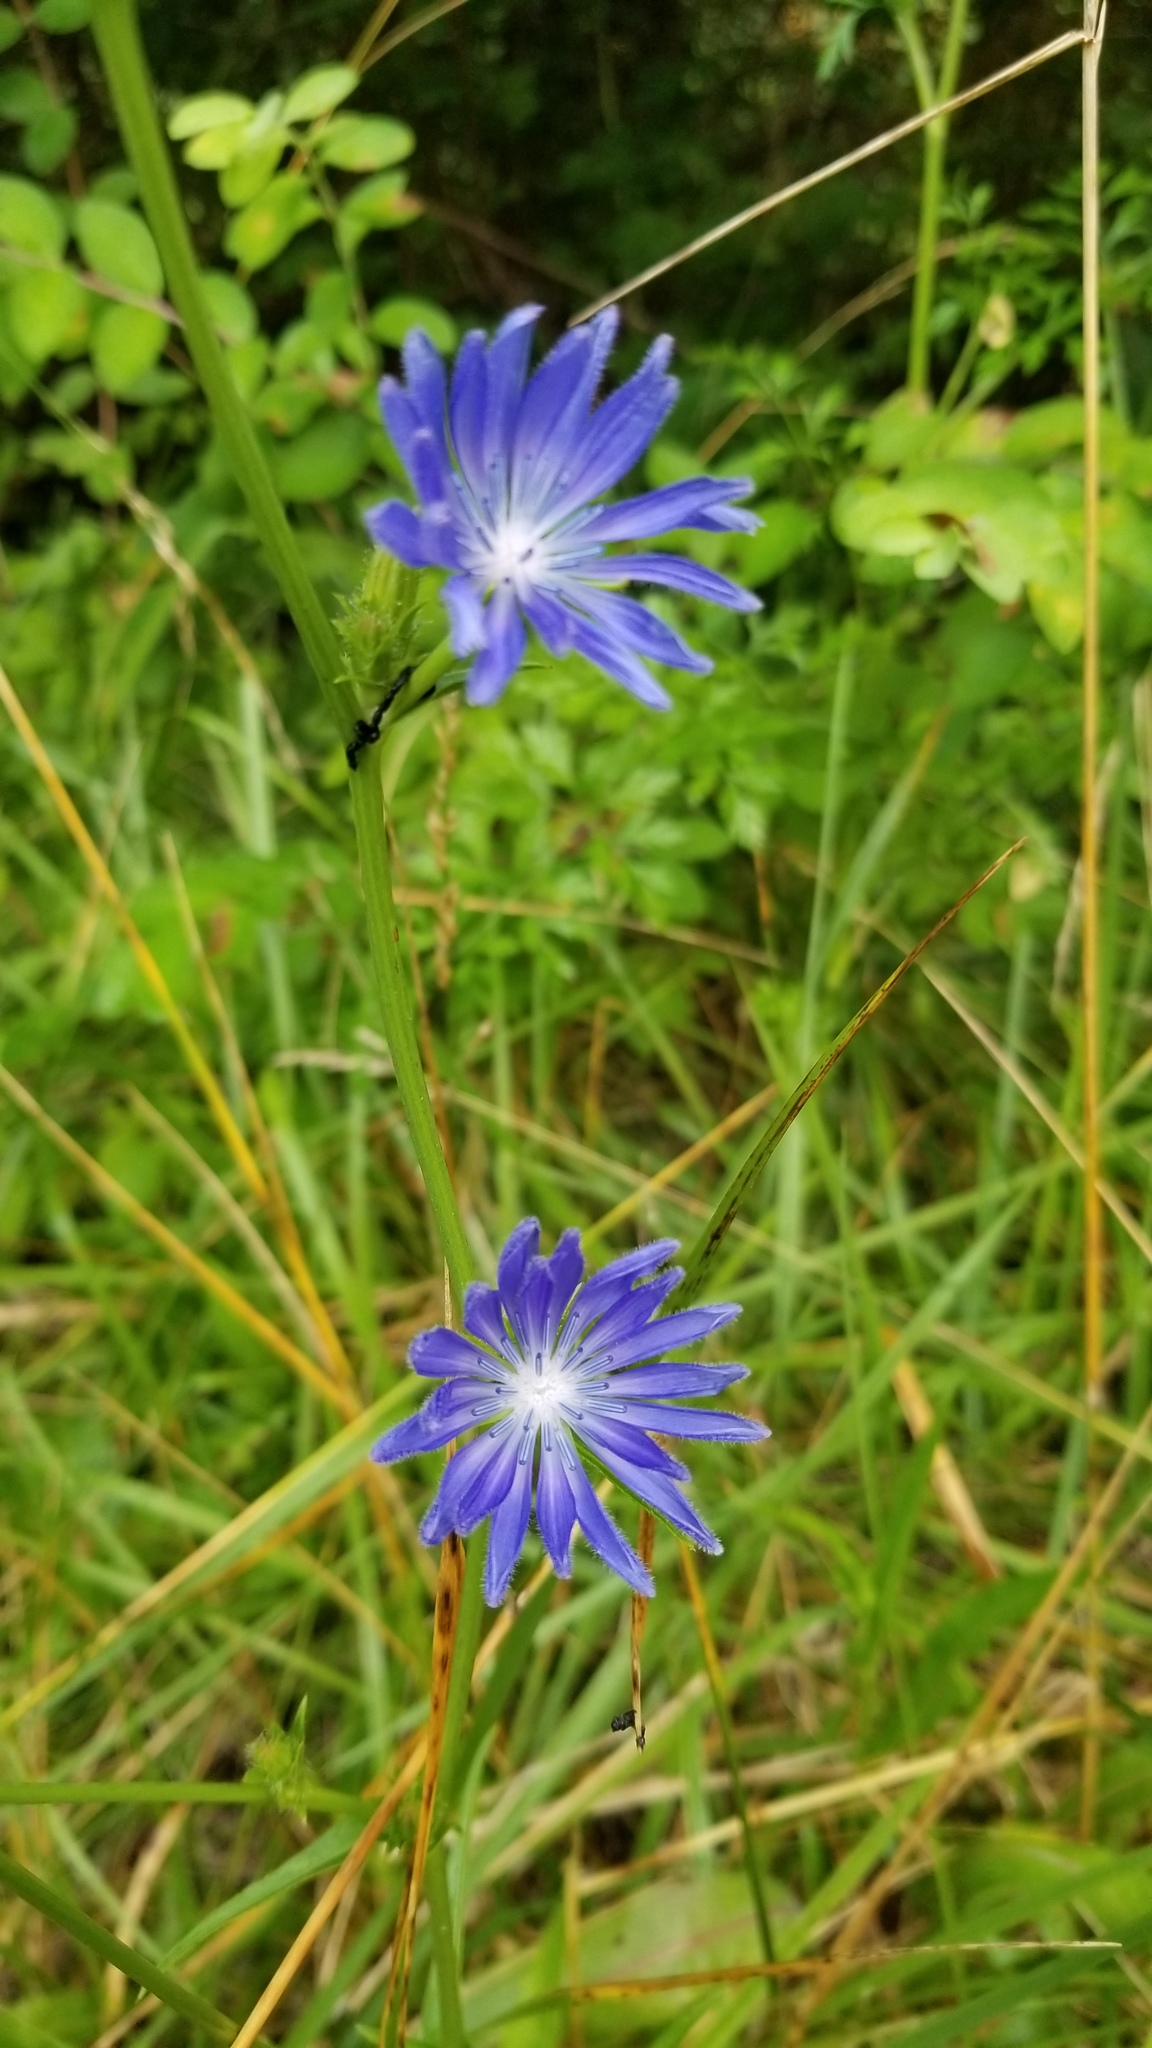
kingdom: Plantae
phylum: Tracheophyta
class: Magnoliopsida
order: Asterales
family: Asteraceae
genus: Cichorium
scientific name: Cichorium intybus
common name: Chicory
